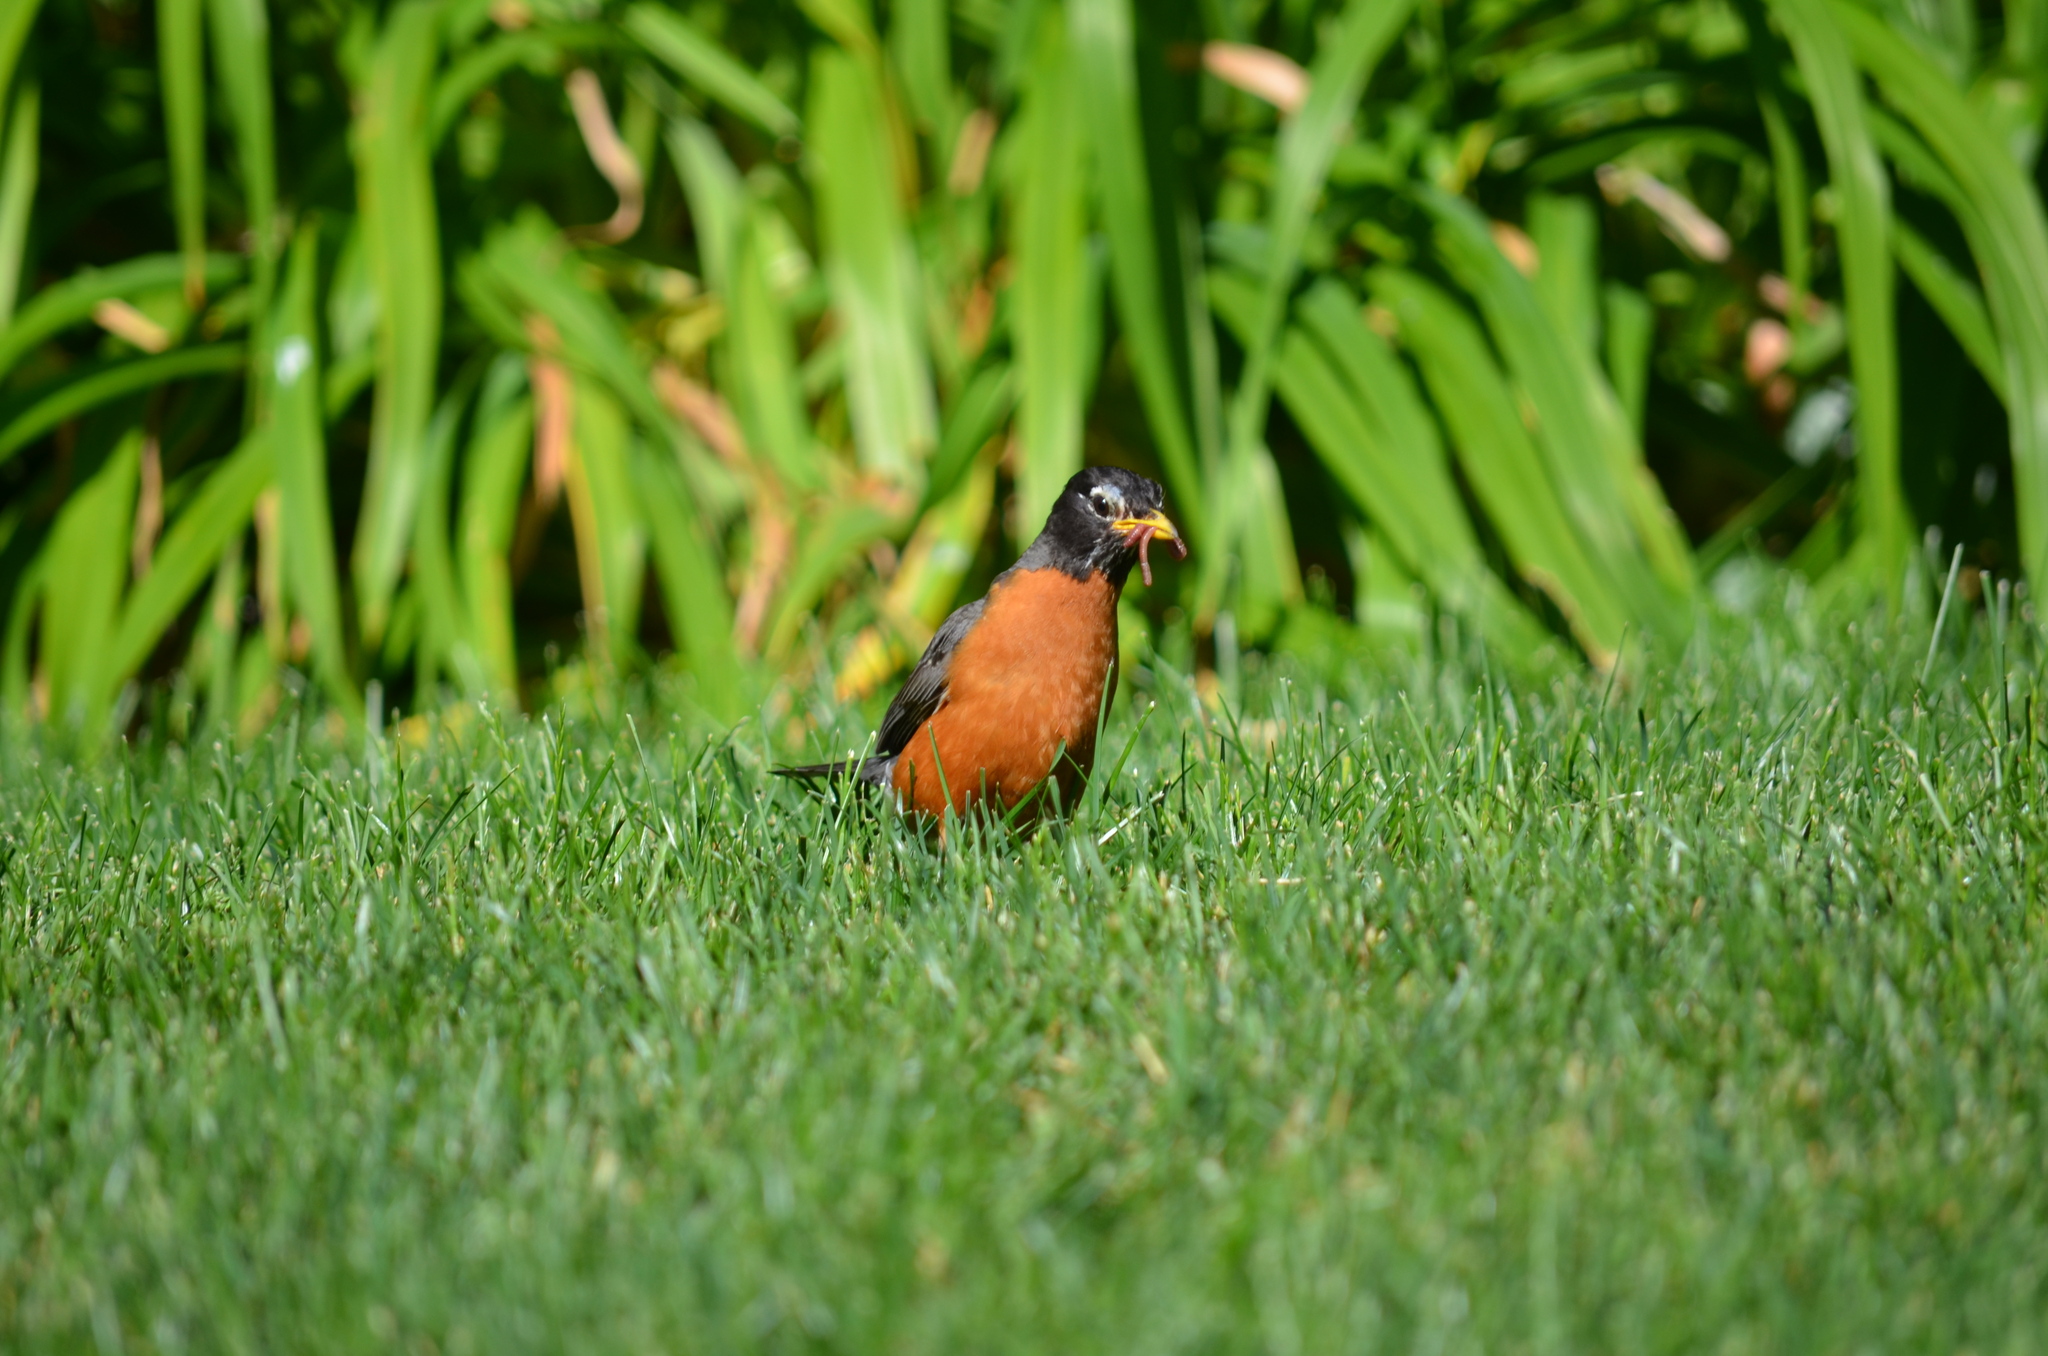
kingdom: Animalia
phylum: Chordata
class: Aves
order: Passeriformes
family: Turdidae
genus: Turdus
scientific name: Turdus migratorius
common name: American robin
